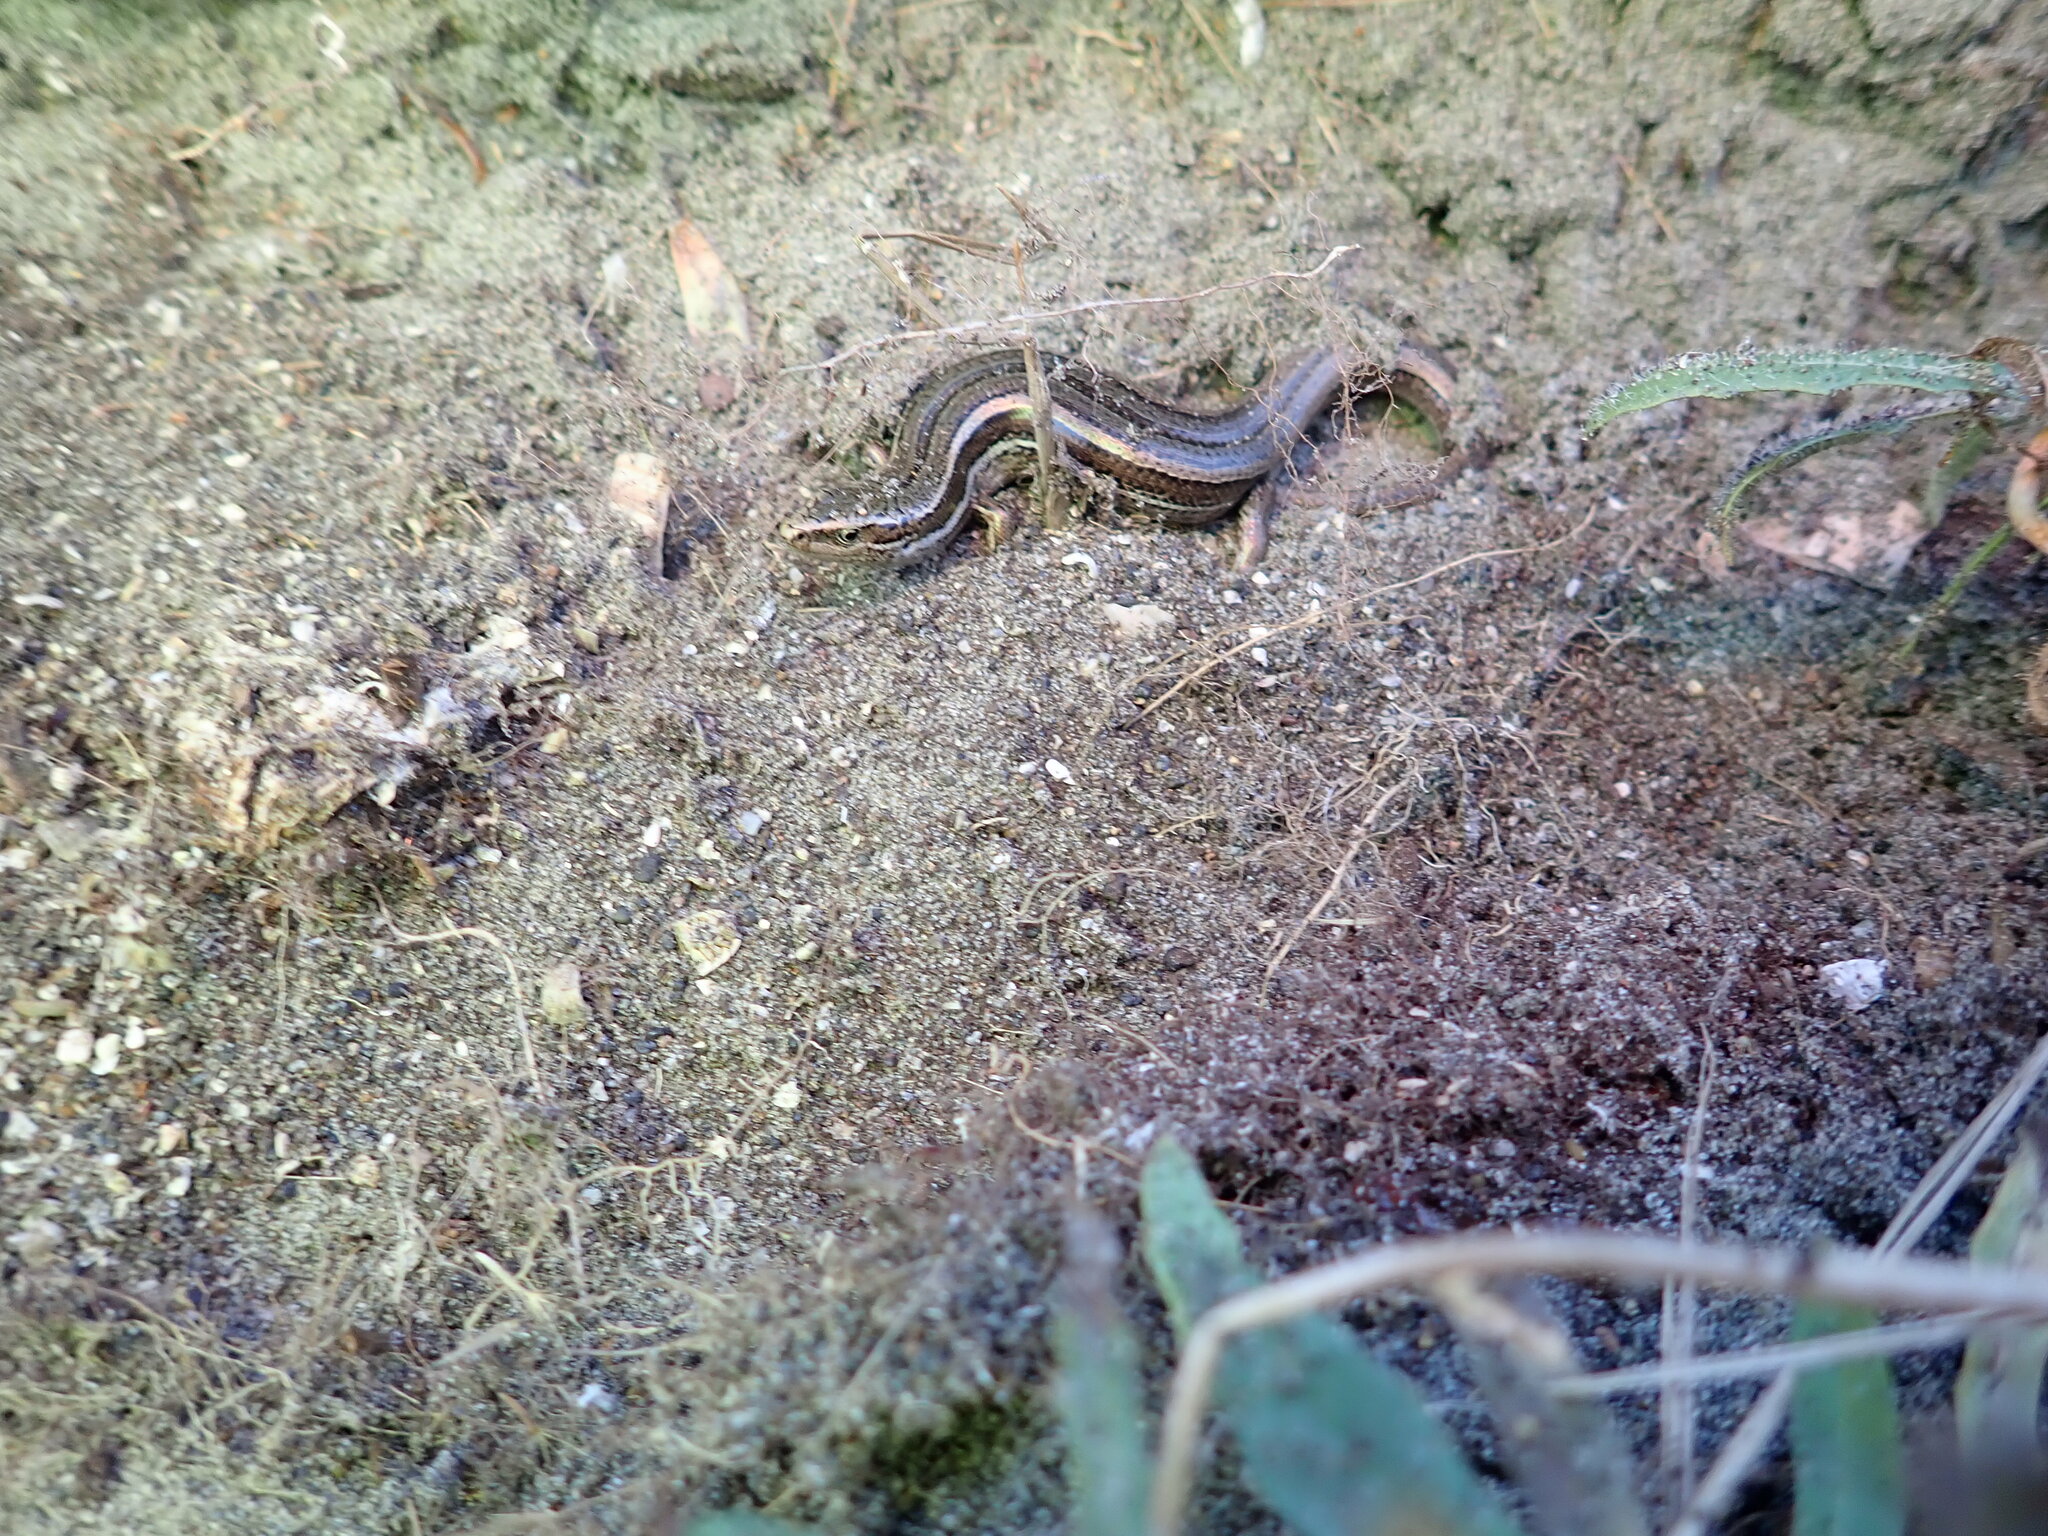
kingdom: Animalia
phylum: Chordata
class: Squamata
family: Scincidae
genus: Oligosoma
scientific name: Oligosoma polychroma
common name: Common new zealand skink
